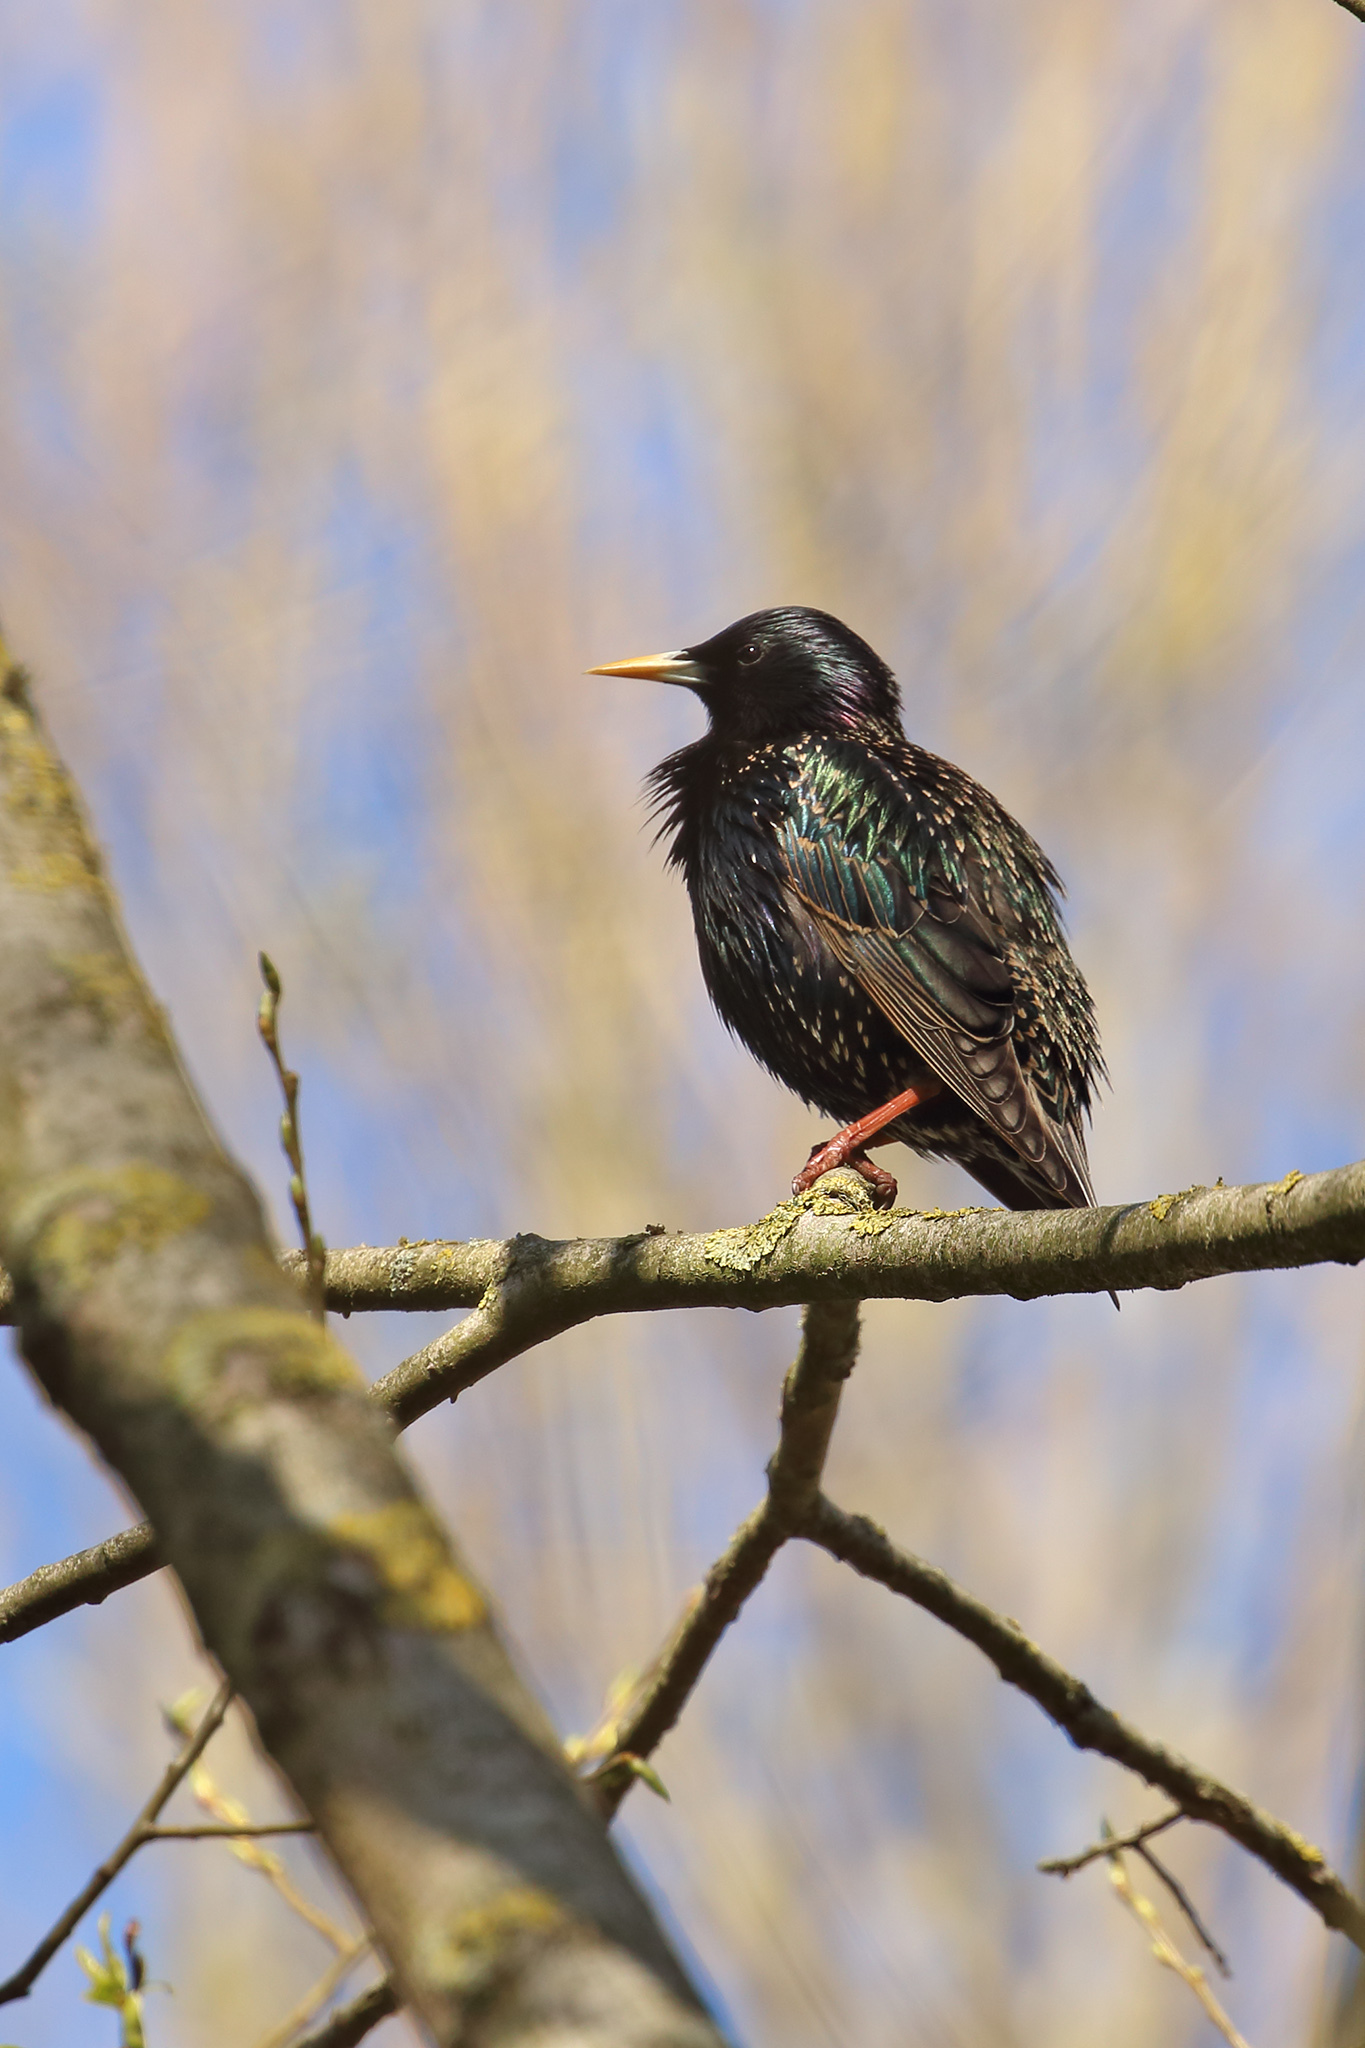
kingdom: Animalia
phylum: Chordata
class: Aves
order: Passeriformes
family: Sturnidae
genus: Sturnus
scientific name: Sturnus vulgaris
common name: Common starling
